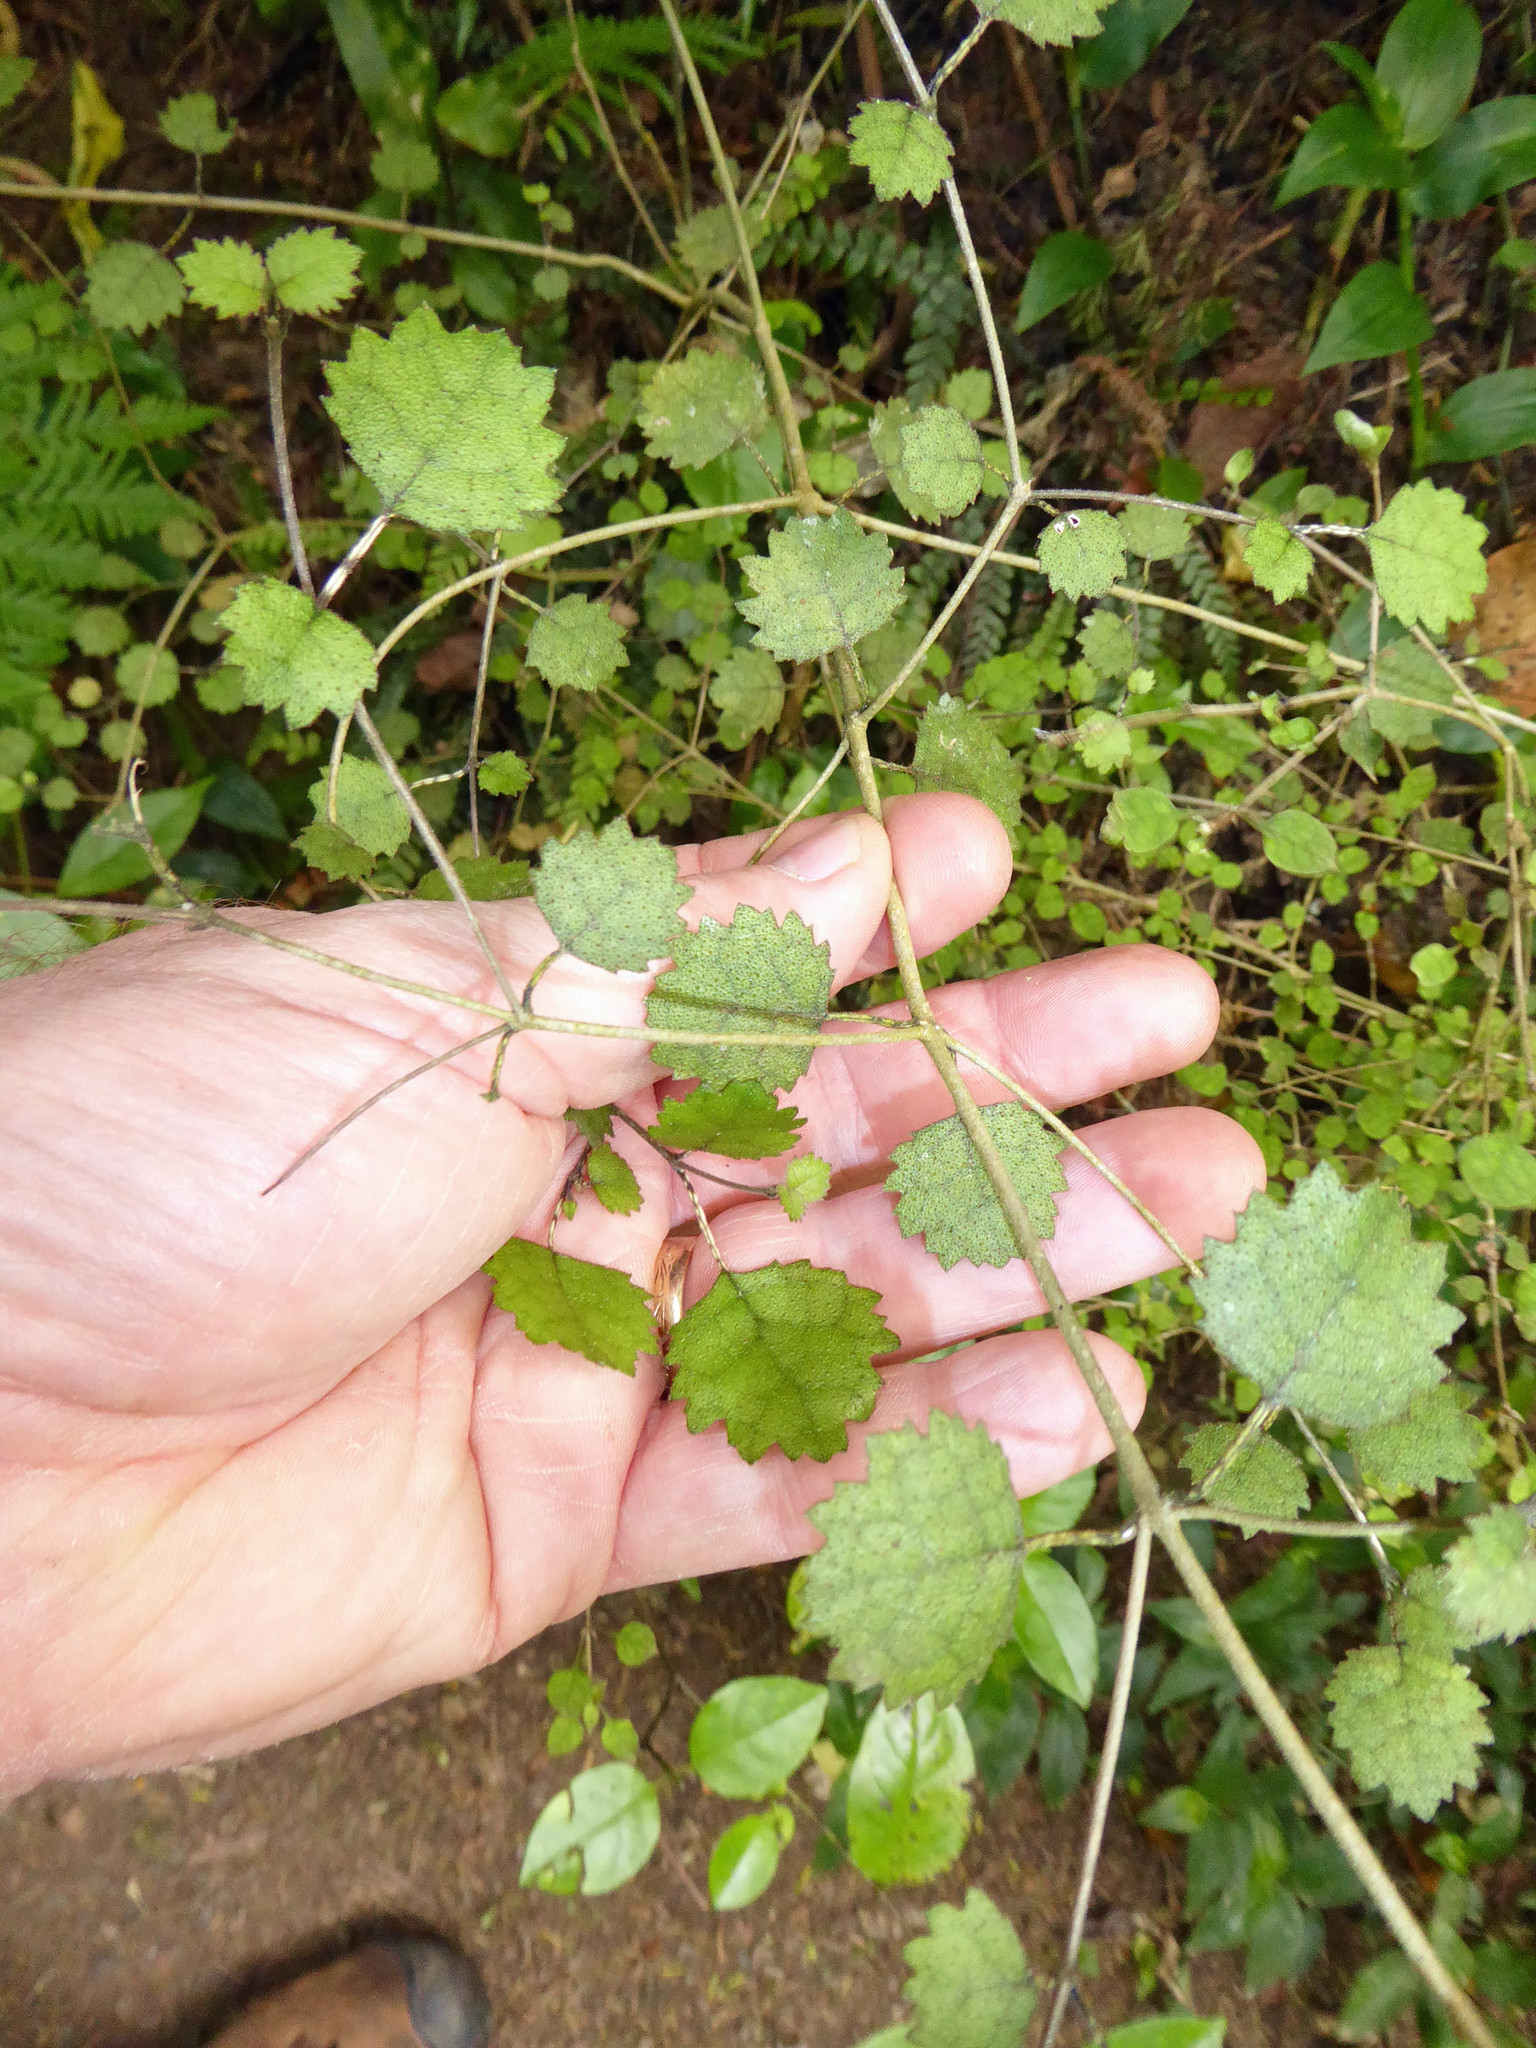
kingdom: Plantae
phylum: Tracheophyta
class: Magnoliopsida
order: Lamiales
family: Gesneriaceae
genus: Rhabdothamnus
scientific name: Rhabdothamnus solandri
